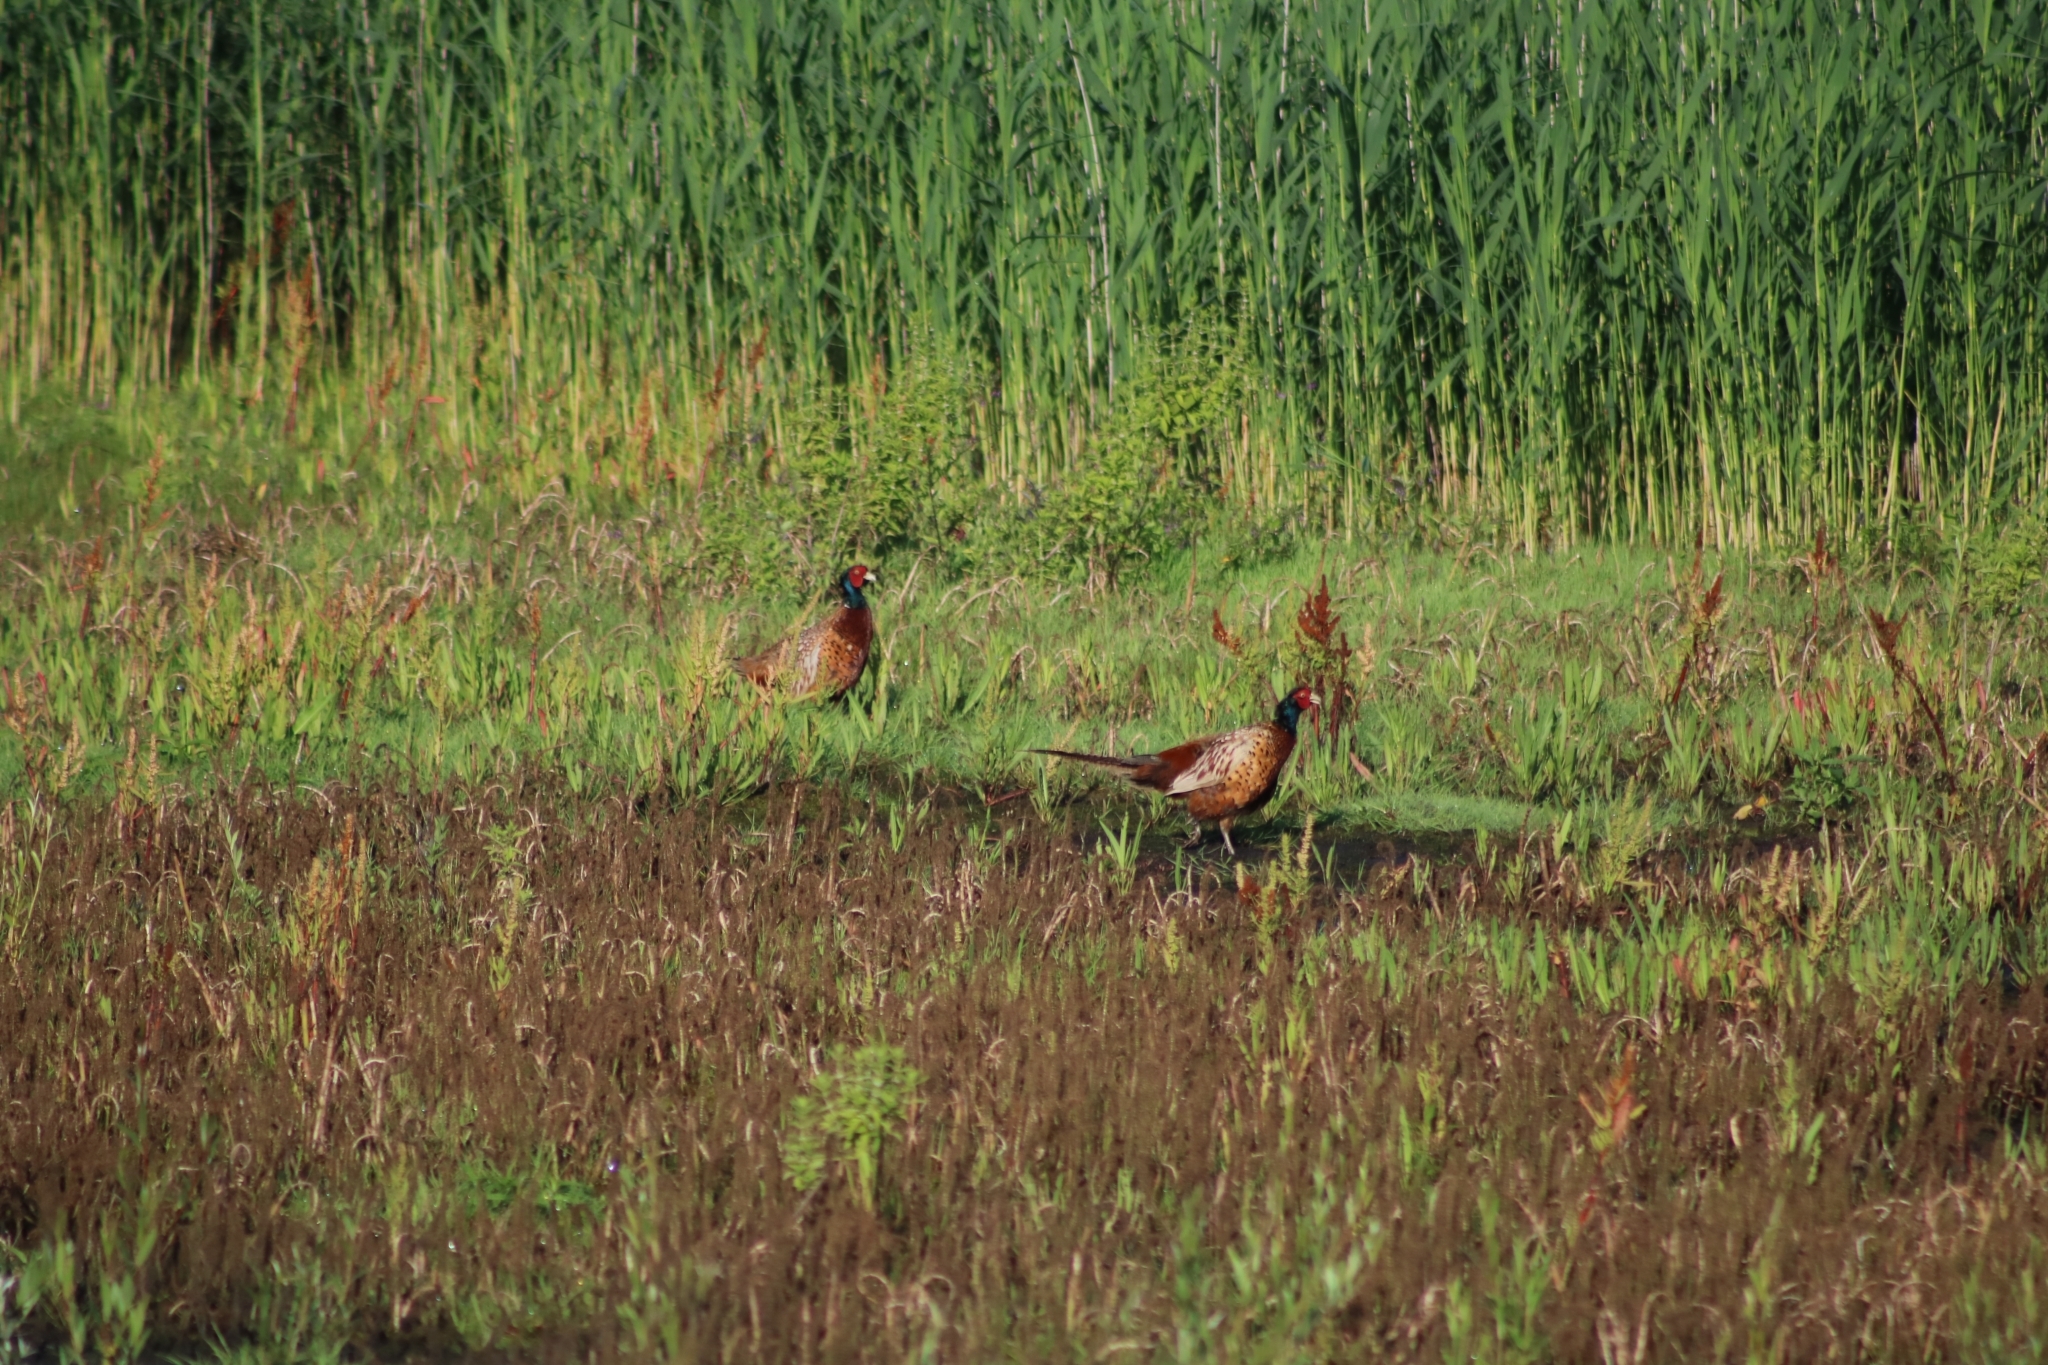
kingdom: Animalia
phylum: Chordata
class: Aves
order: Galliformes
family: Phasianidae
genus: Phasianus
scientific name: Phasianus colchicus
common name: Common pheasant
